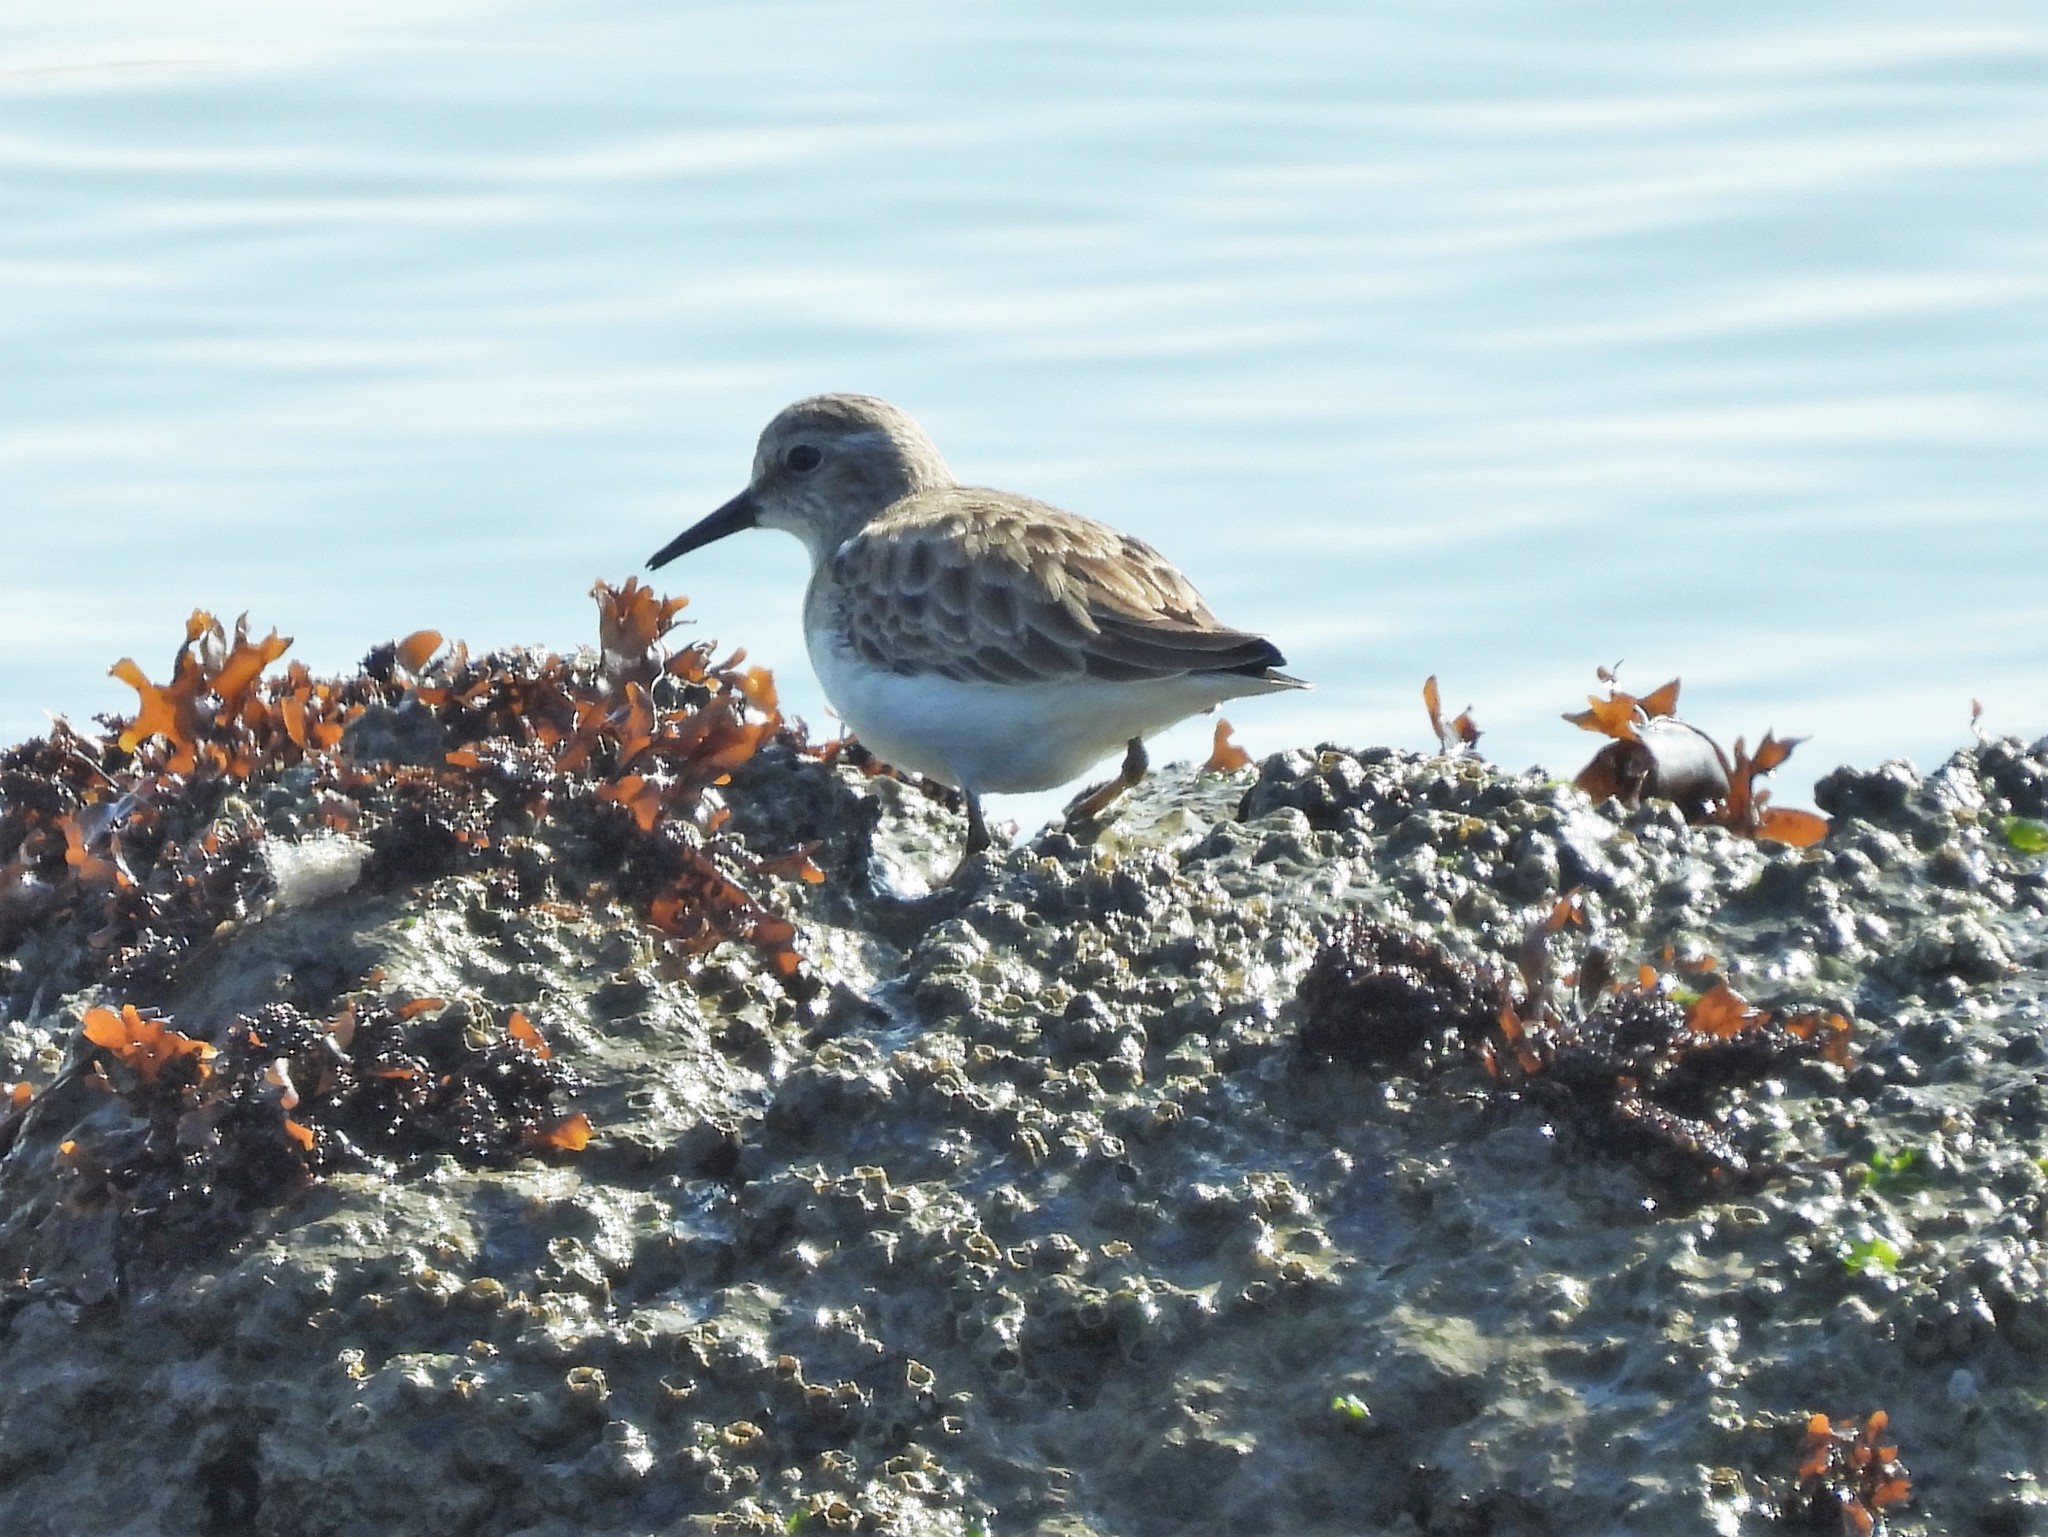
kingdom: Animalia
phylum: Chordata
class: Aves
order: Charadriiformes
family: Scolopacidae
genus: Calidris
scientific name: Calidris minutilla
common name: Least sandpiper
